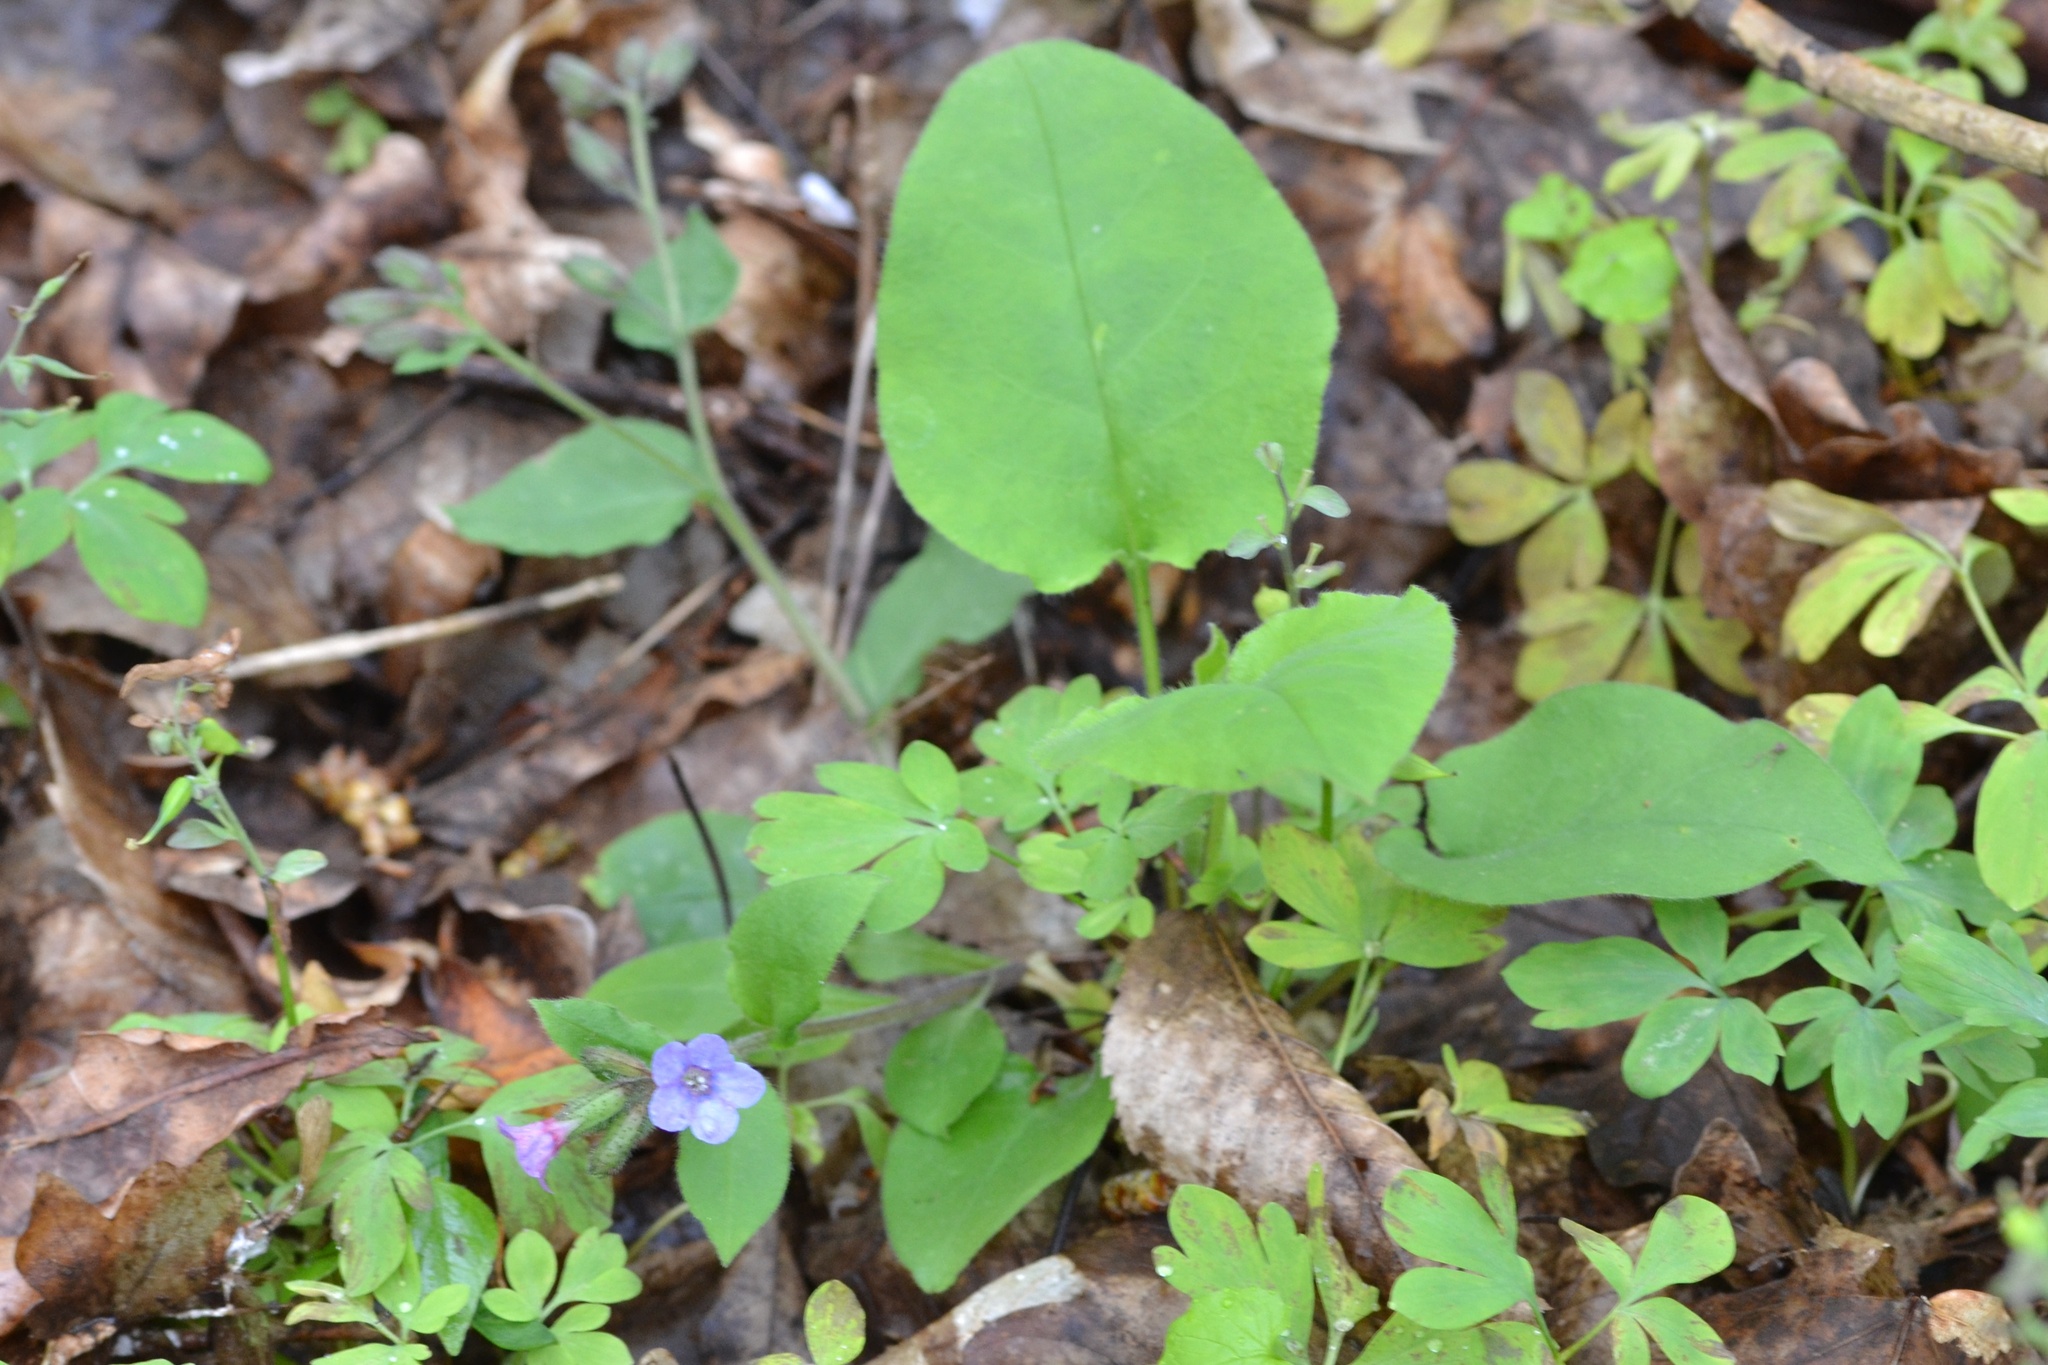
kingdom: Plantae
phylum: Tracheophyta
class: Magnoliopsida
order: Boraginales
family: Boraginaceae
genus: Pulmonaria
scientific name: Pulmonaria obscura
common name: Suffolk lungwort
